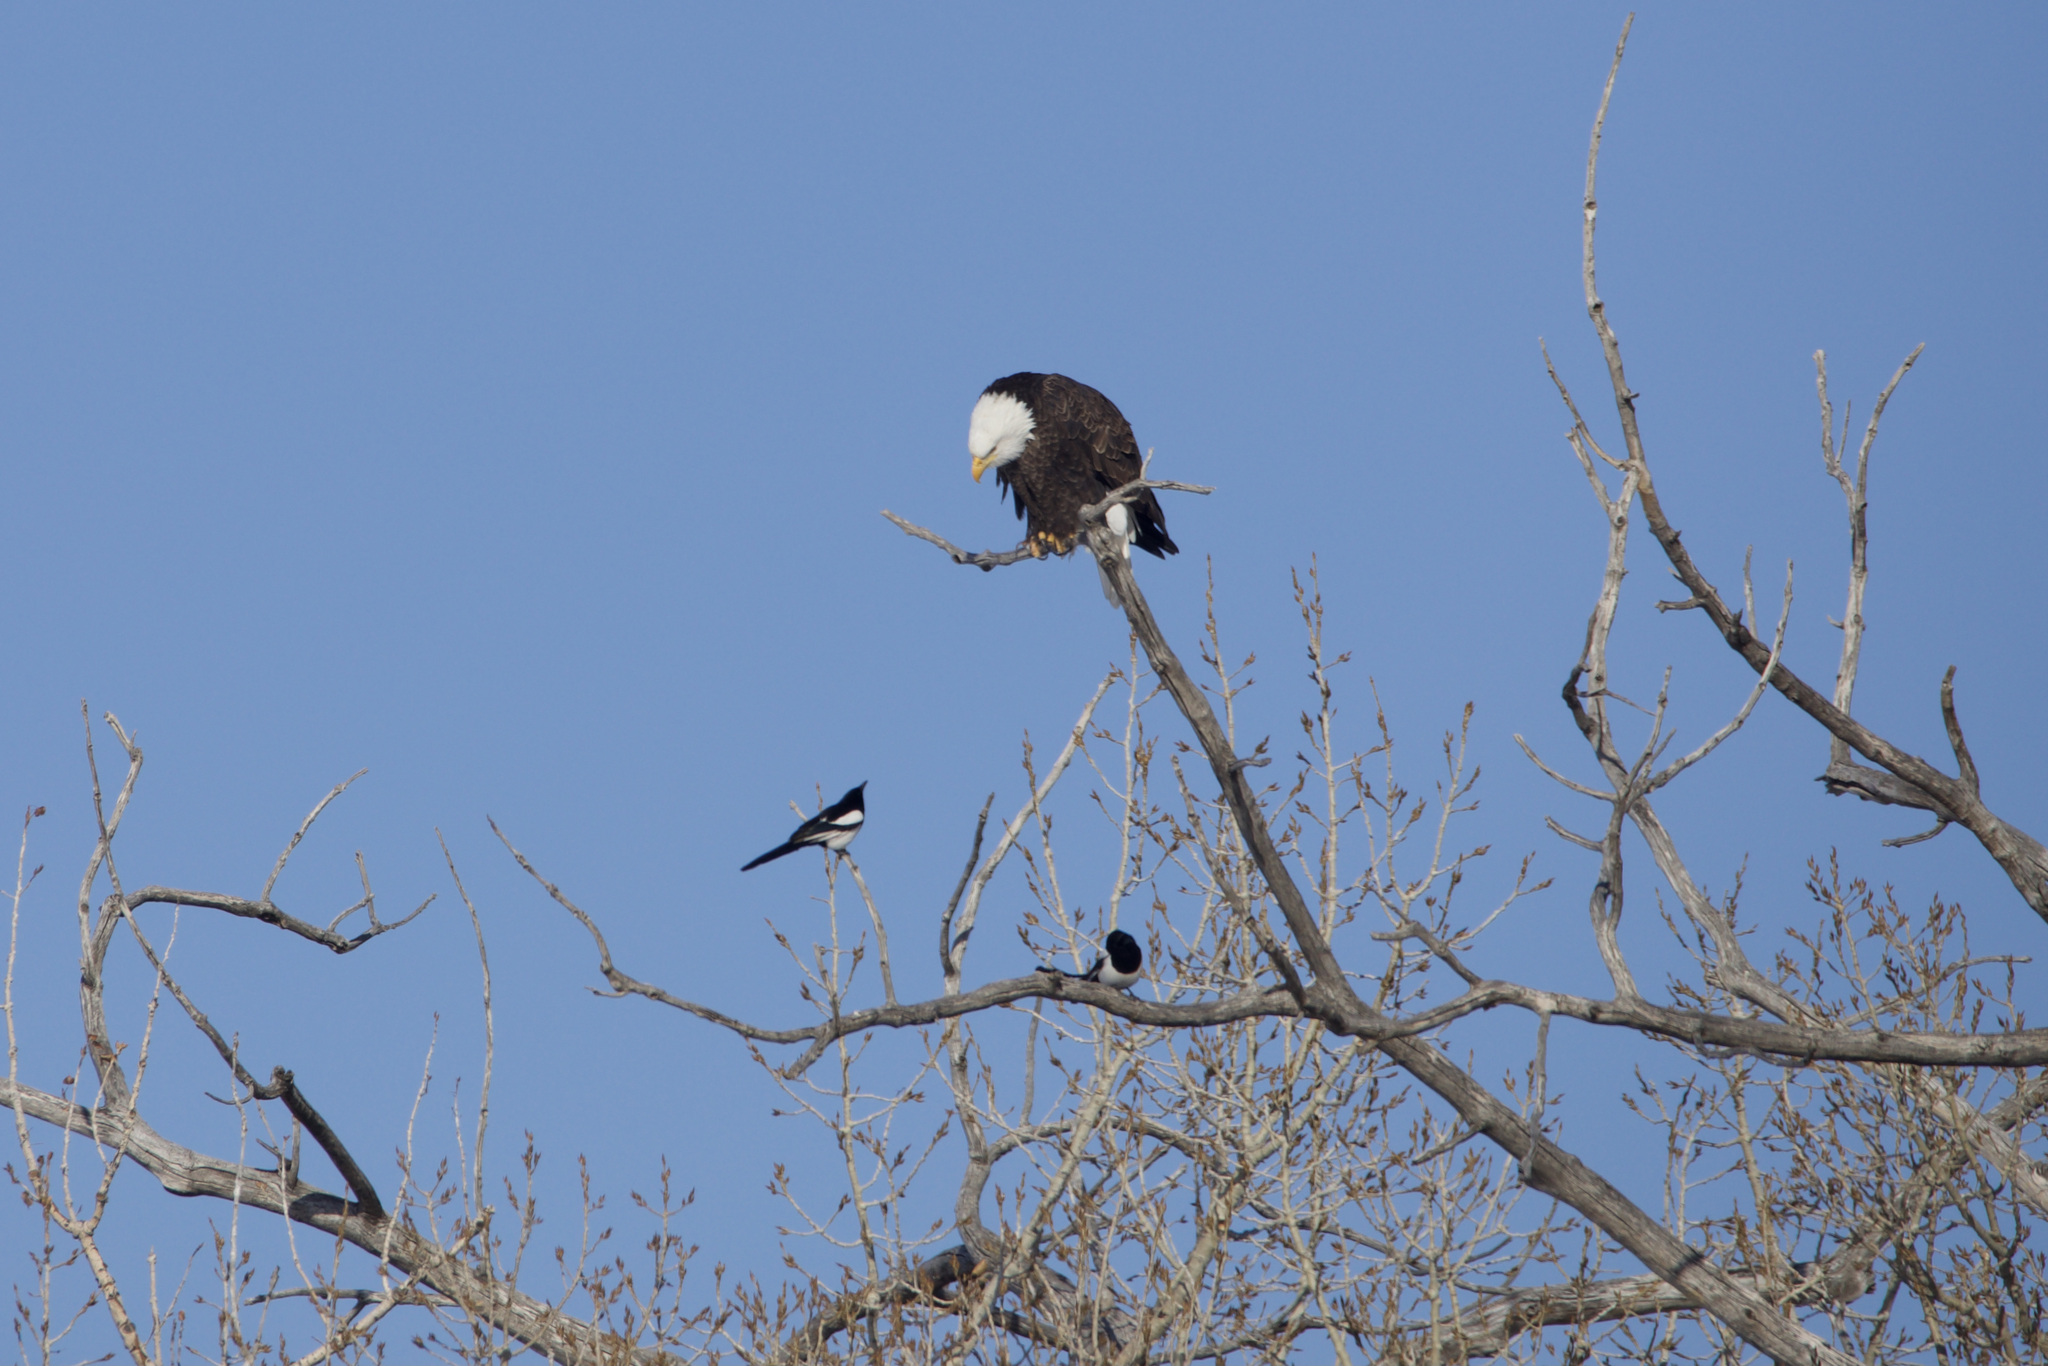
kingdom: Animalia
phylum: Chordata
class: Aves
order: Accipitriformes
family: Accipitridae
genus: Haliaeetus
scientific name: Haliaeetus leucocephalus
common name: Bald eagle
